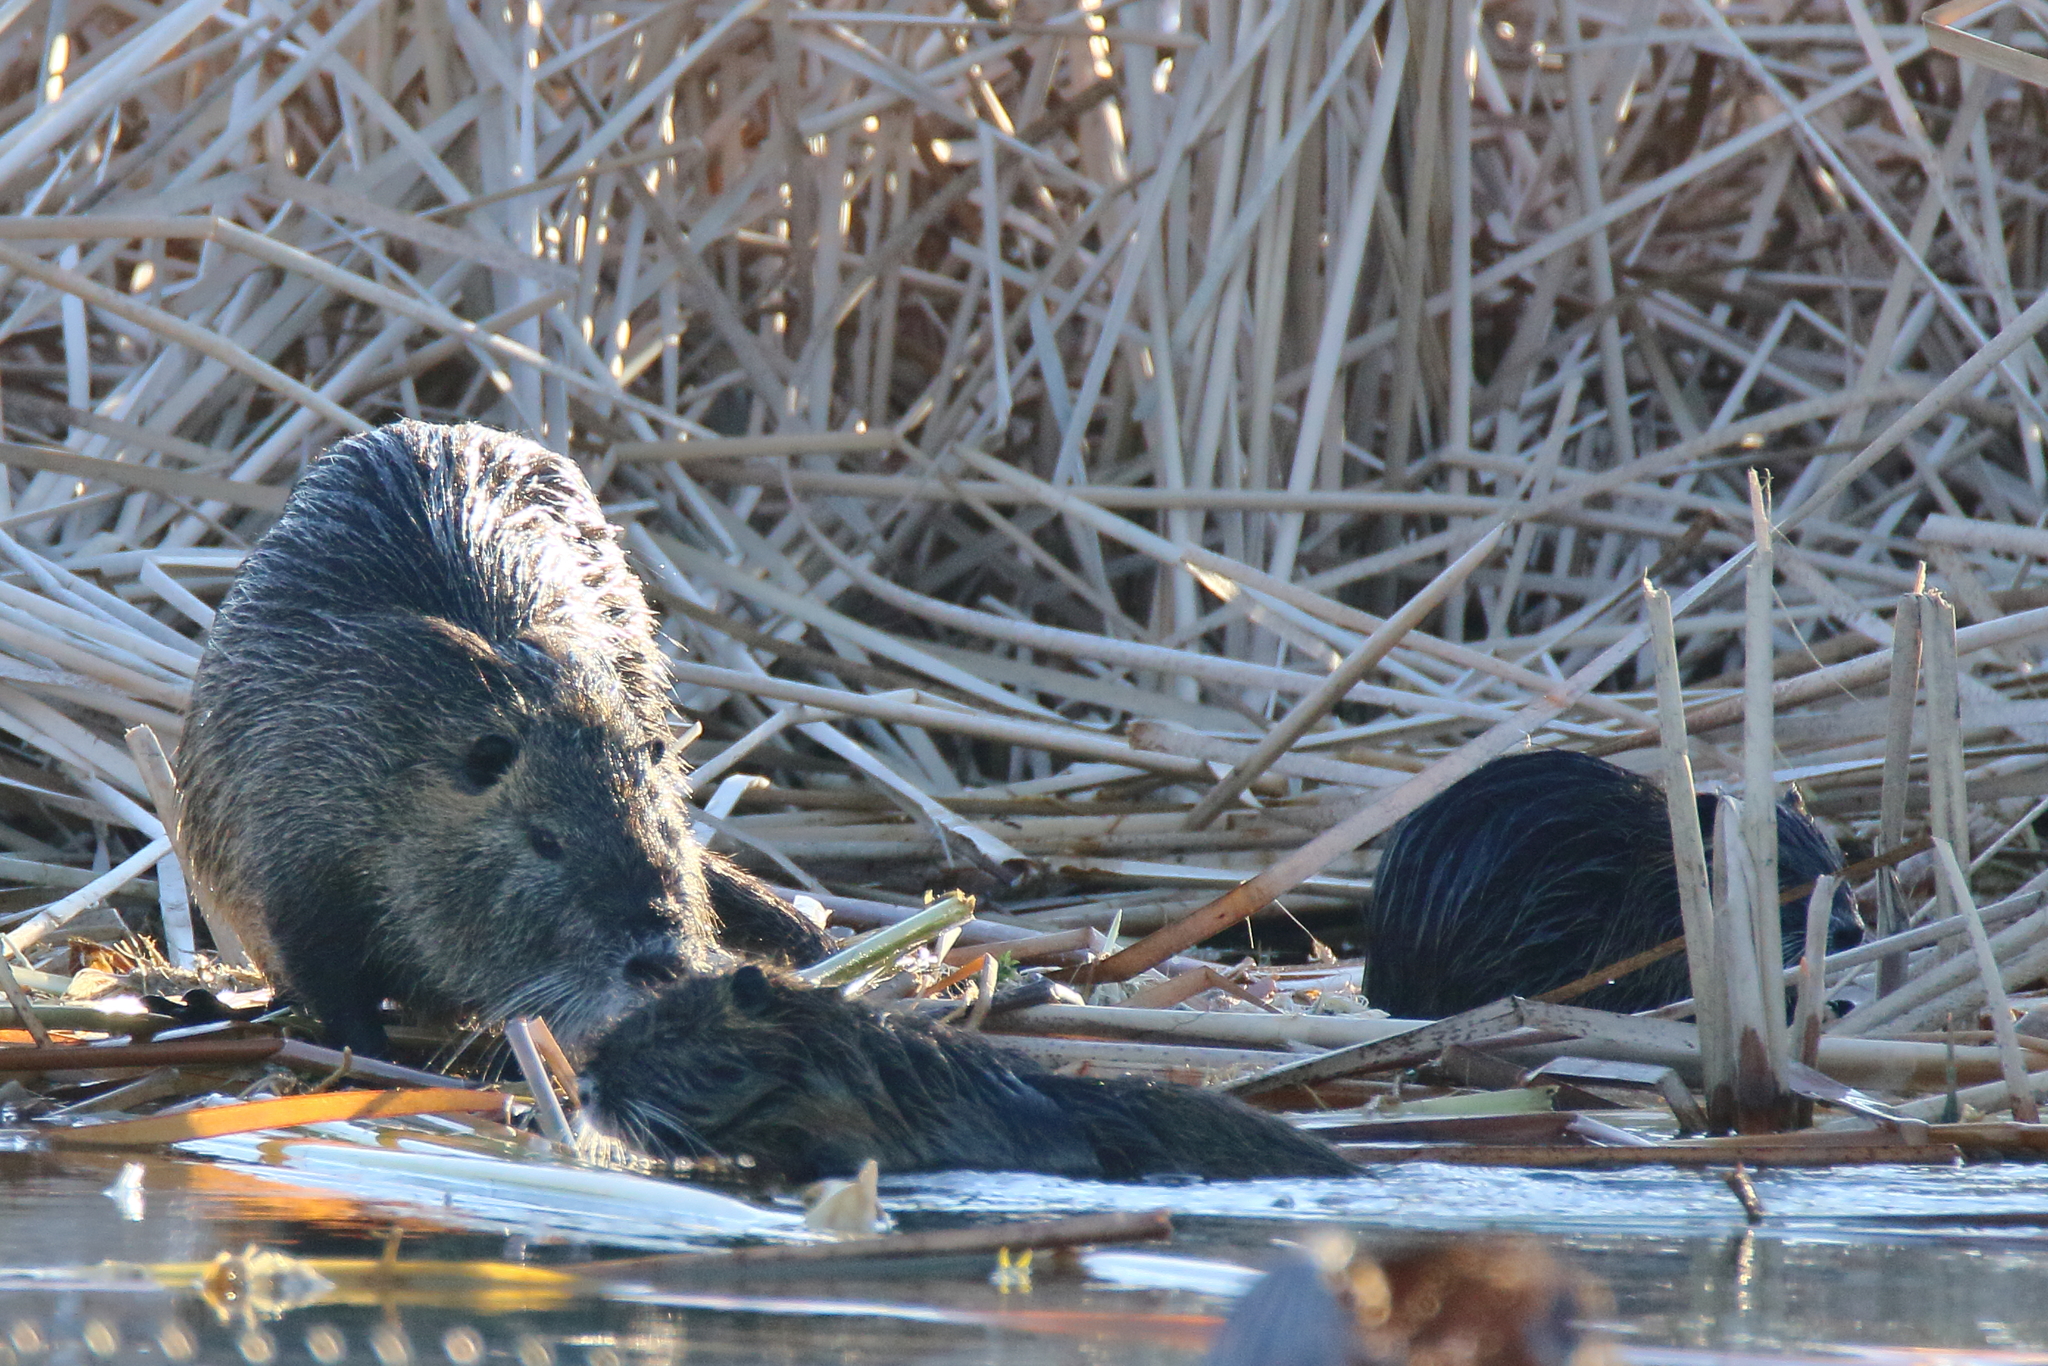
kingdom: Animalia
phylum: Chordata
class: Mammalia
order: Rodentia
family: Myocastoridae
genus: Myocastor
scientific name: Myocastor coypus
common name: Coypu
